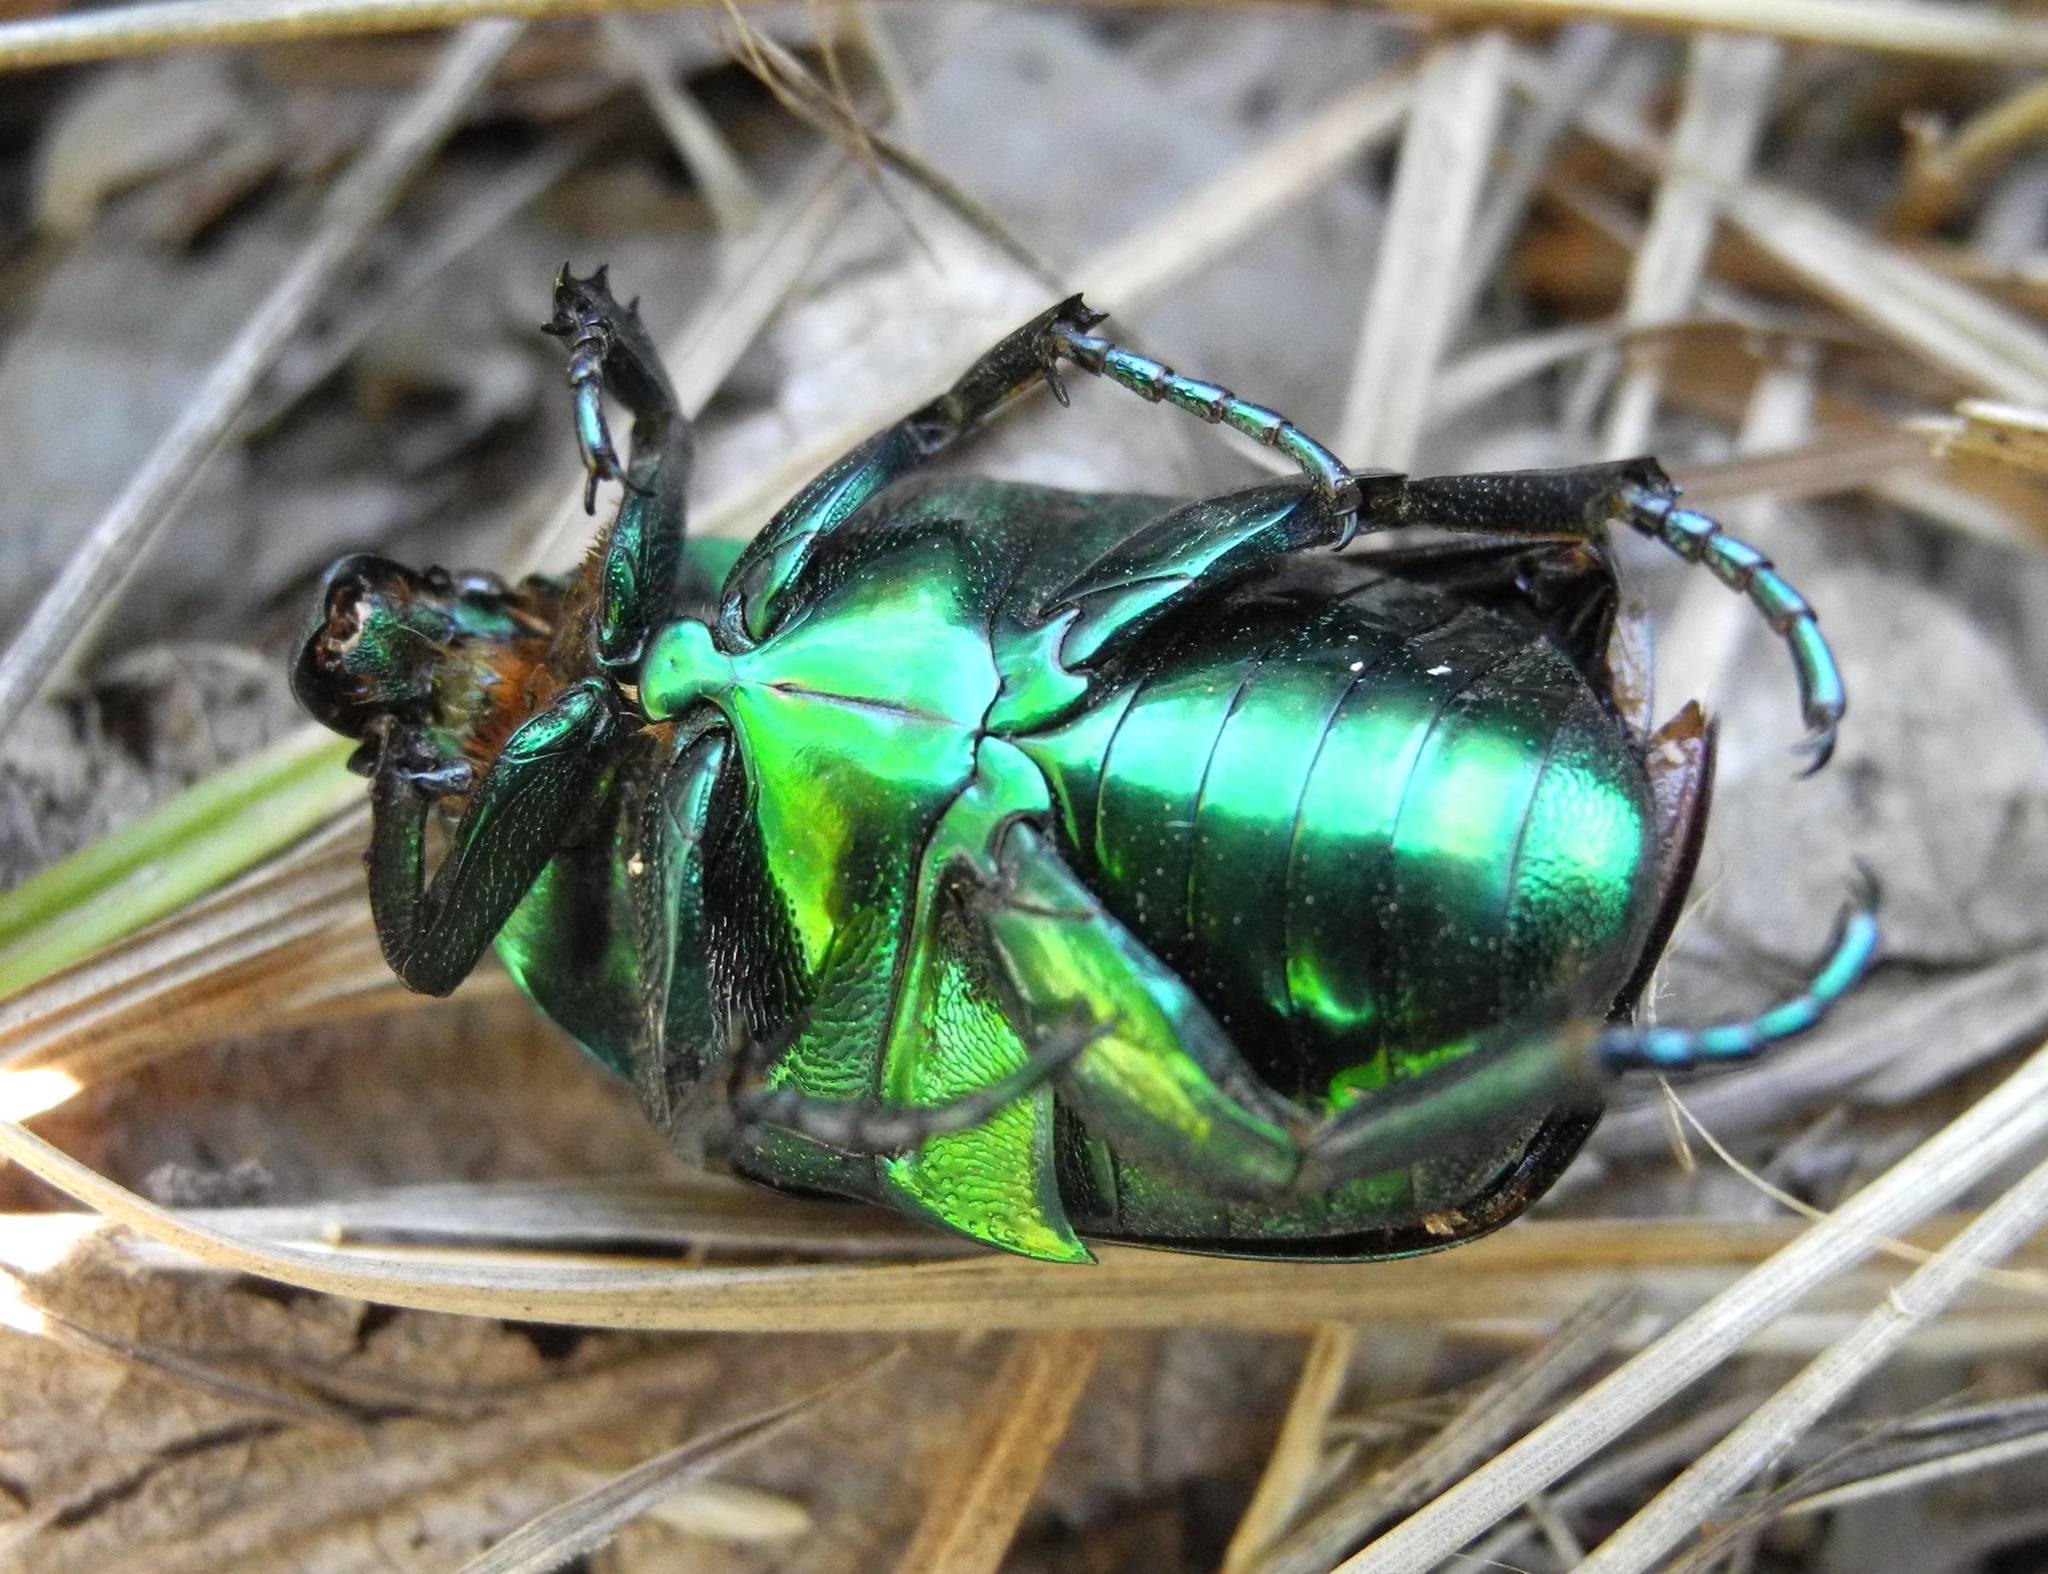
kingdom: Animalia
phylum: Arthropoda
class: Insecta
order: Coleoptera
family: Scarabaeidae
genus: Protaetia
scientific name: Protaetia speciosissima
